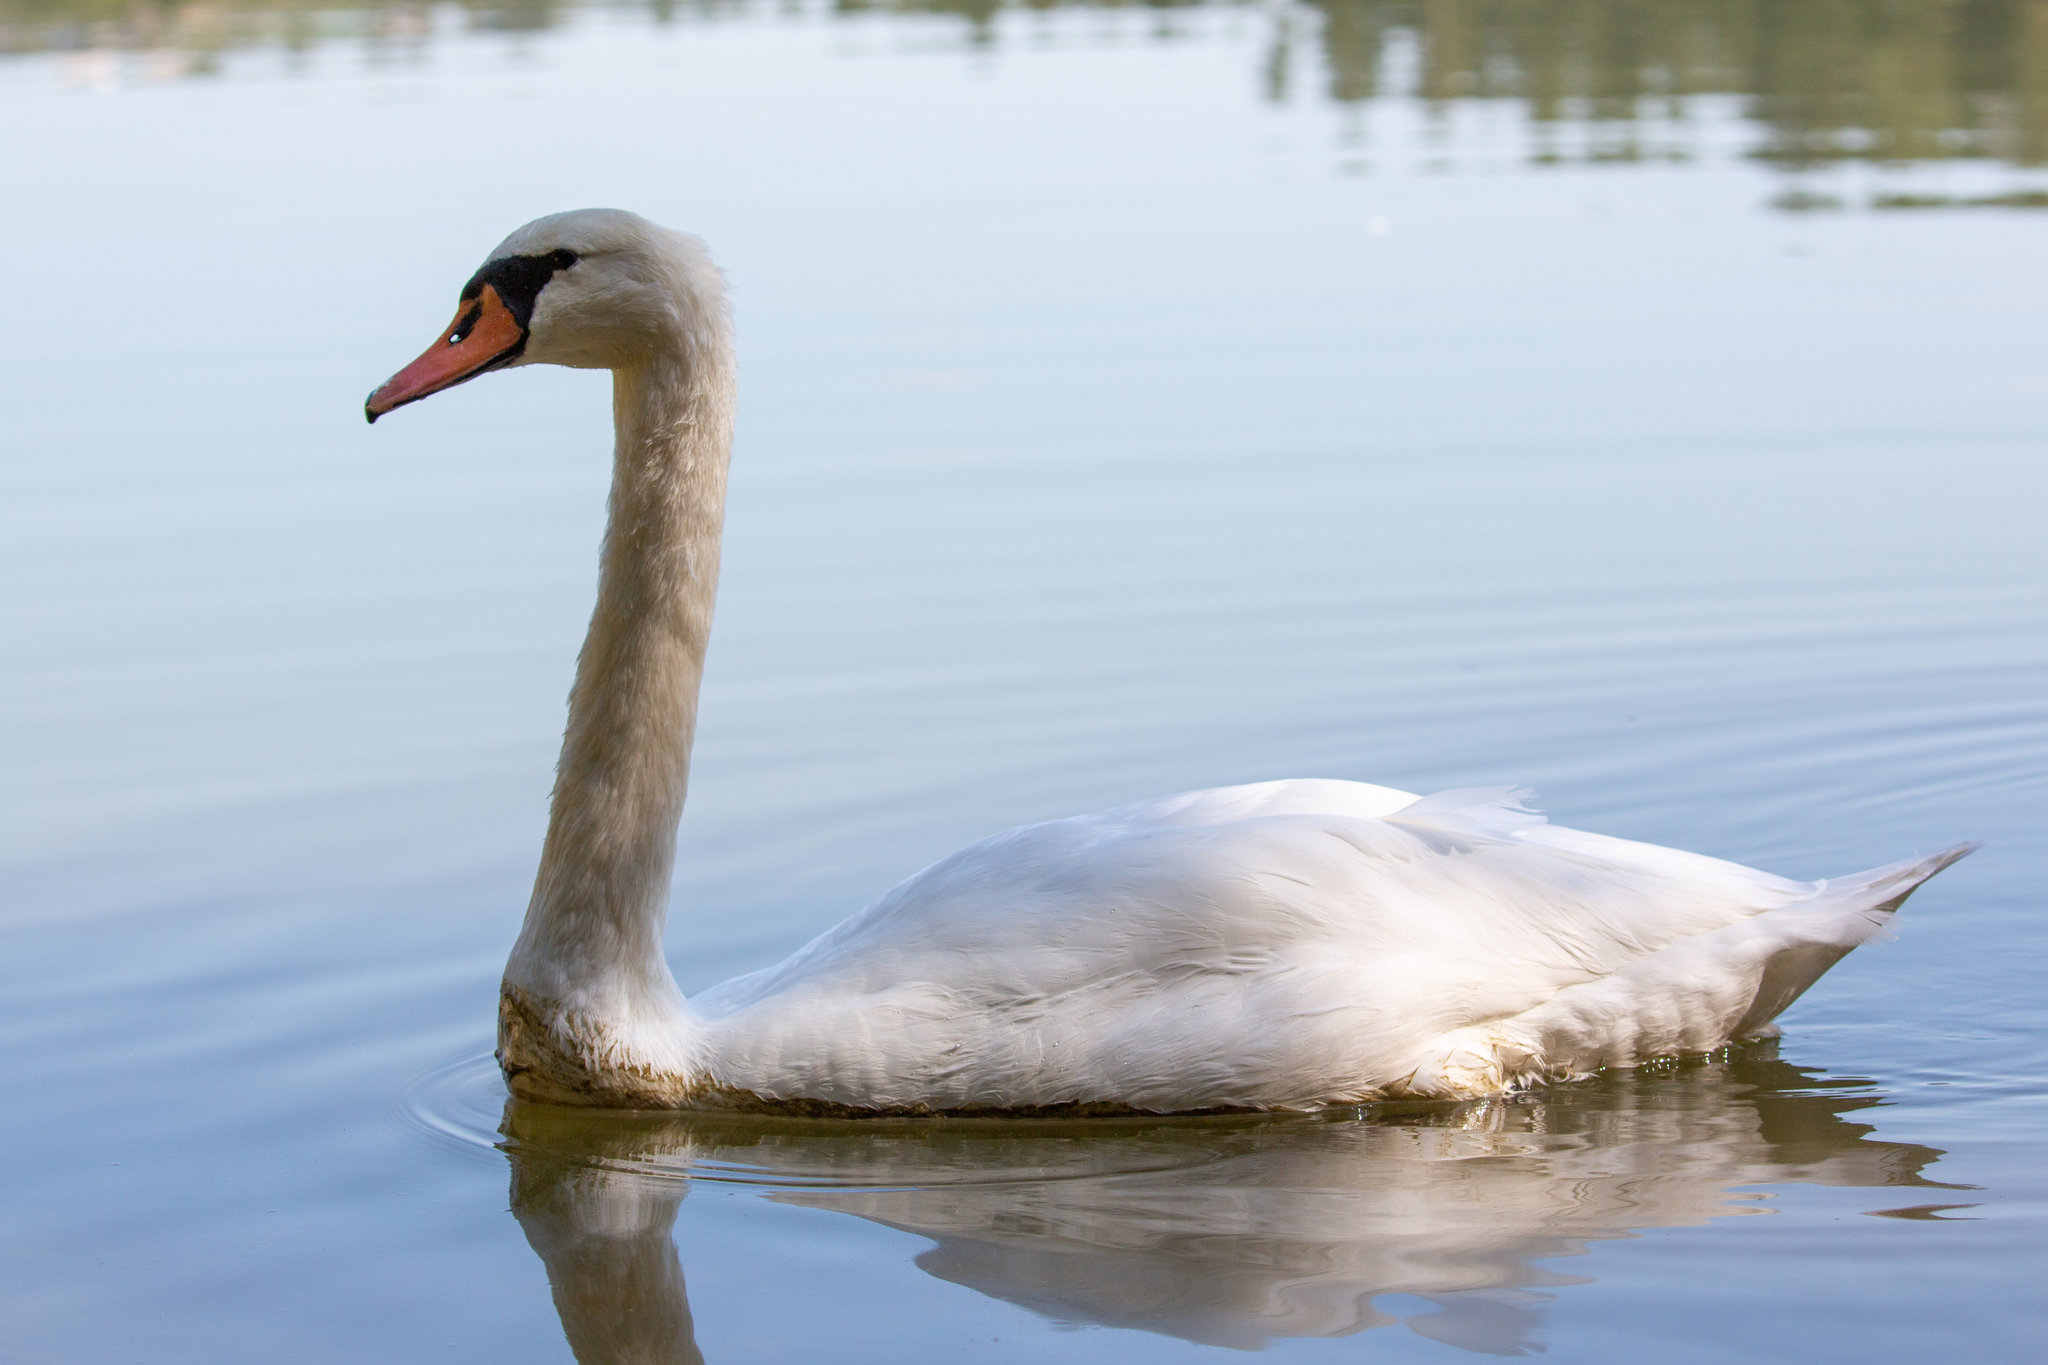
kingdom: Animalia
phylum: Chordata
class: Aves
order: Anseriformes
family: Anatidae
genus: Cygnus
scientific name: Cygnus olor
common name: Mute swan
